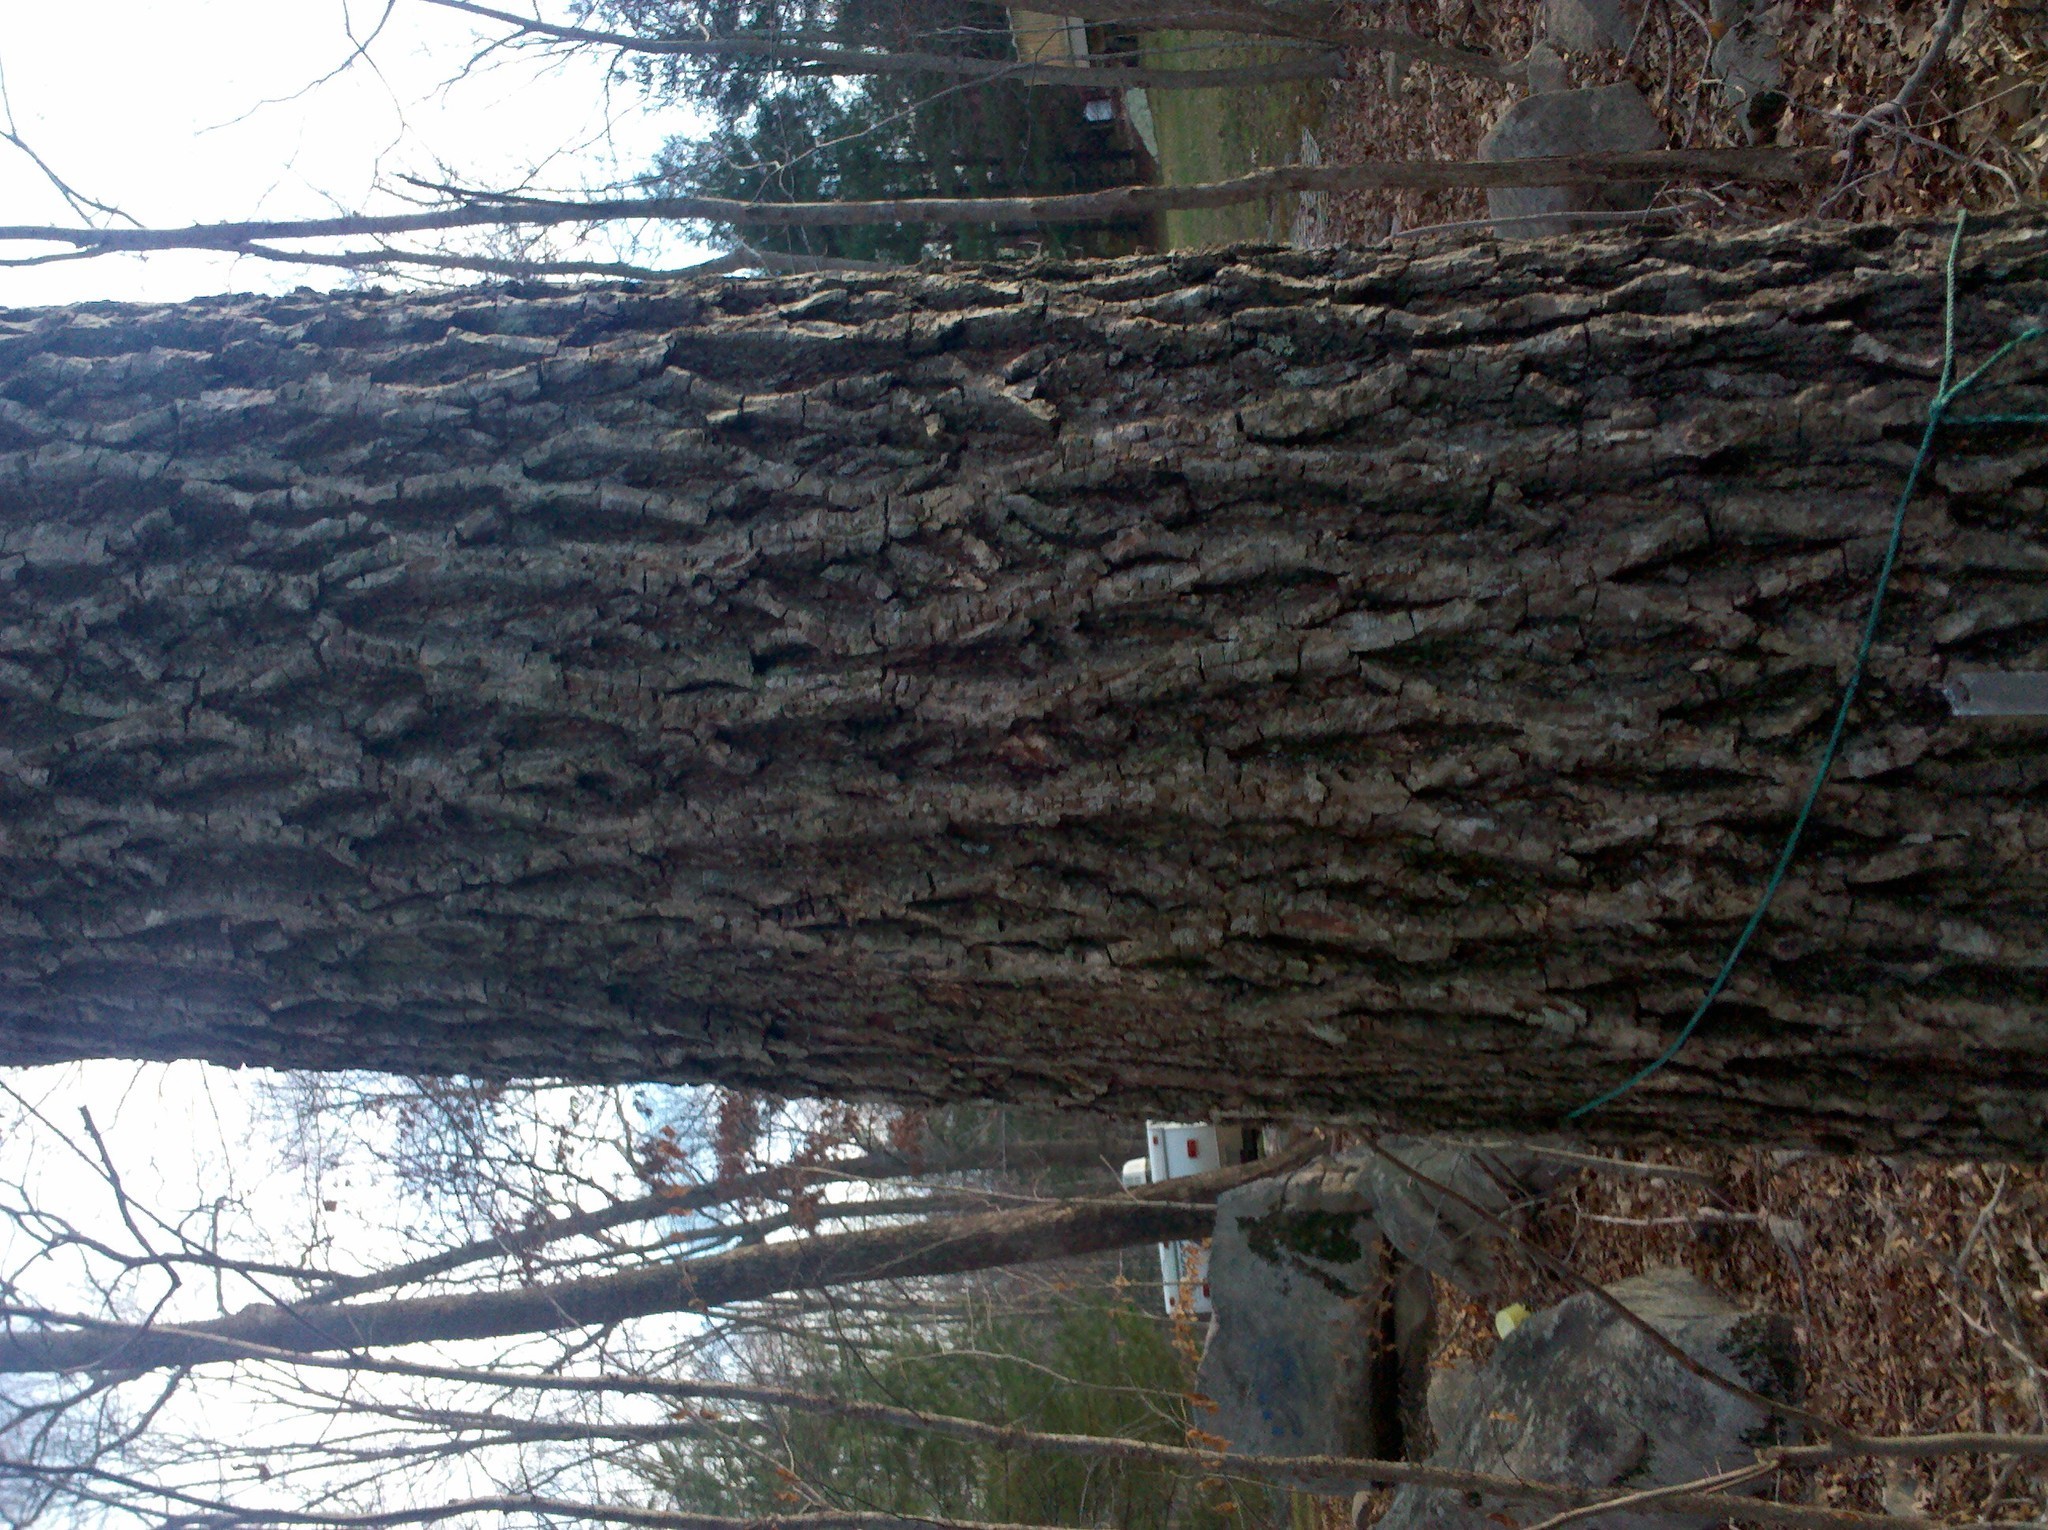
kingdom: Plantae
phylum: Tracheophyta
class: Magnoliopsida
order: Fagales
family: Juglandaceae
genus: Carya
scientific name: Carya alba
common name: Mockernut hickory
